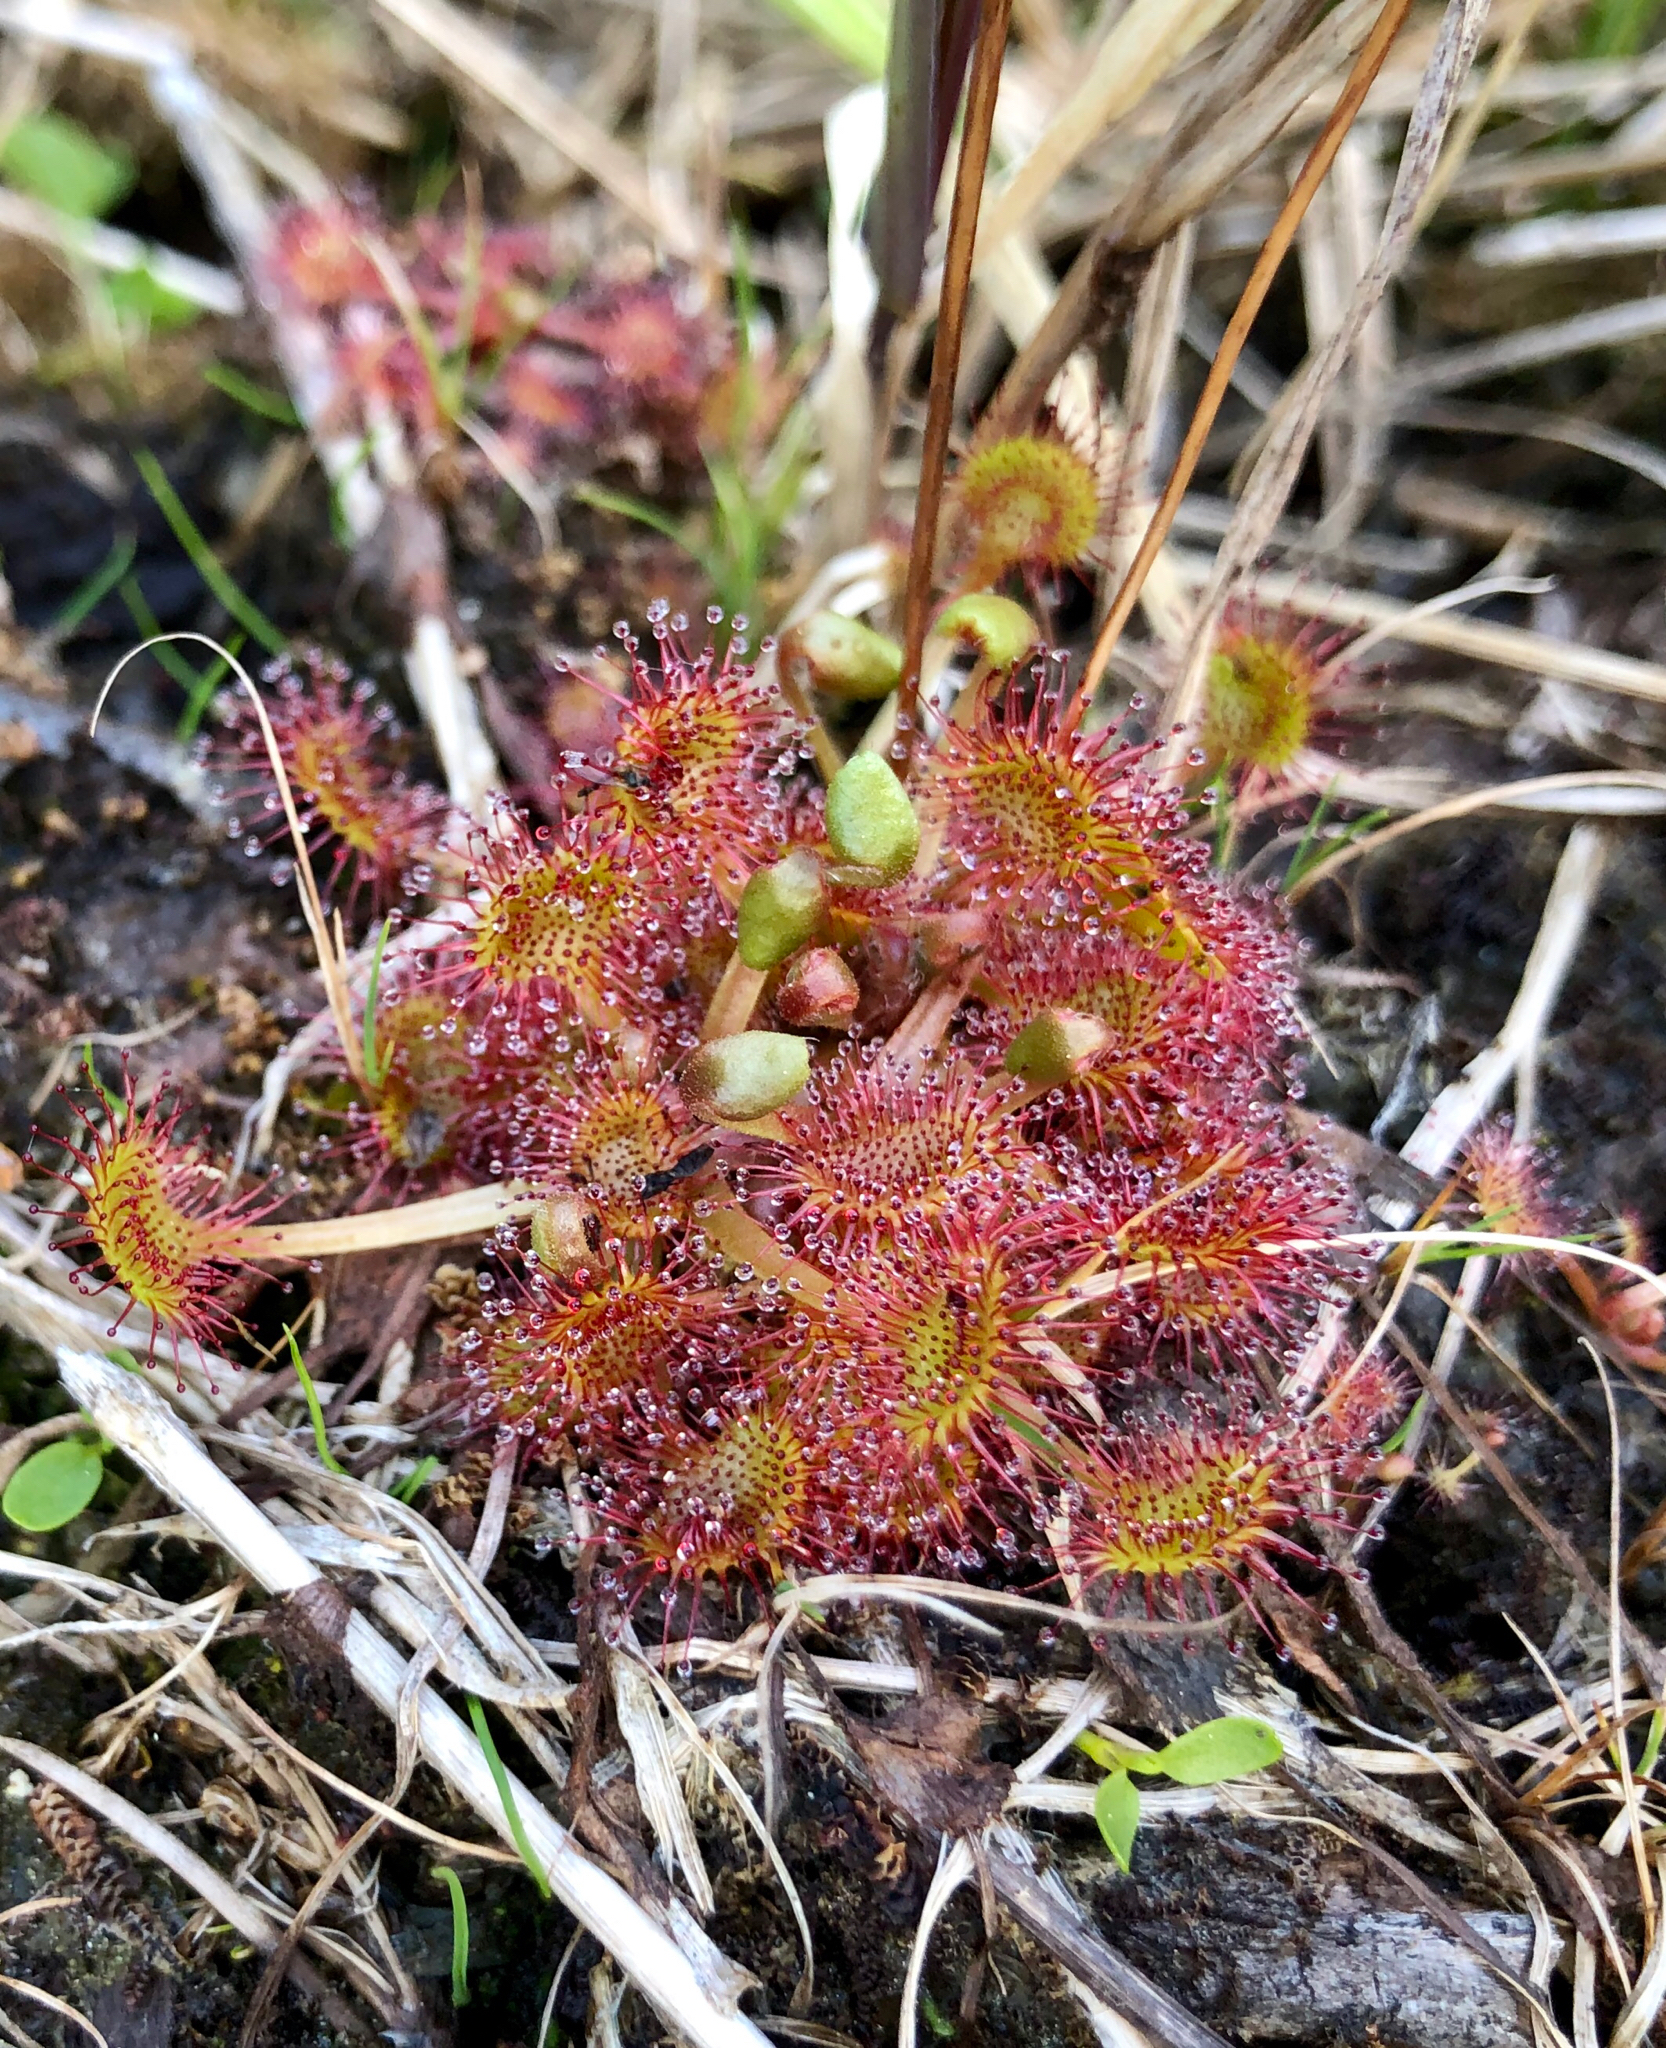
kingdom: Plantae
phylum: Tracheophyta
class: Magnoliopsida
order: Caryophyllales
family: Droseraceae
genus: Drosera
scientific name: Drosera rotundifolia
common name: Round-leaved sundew
